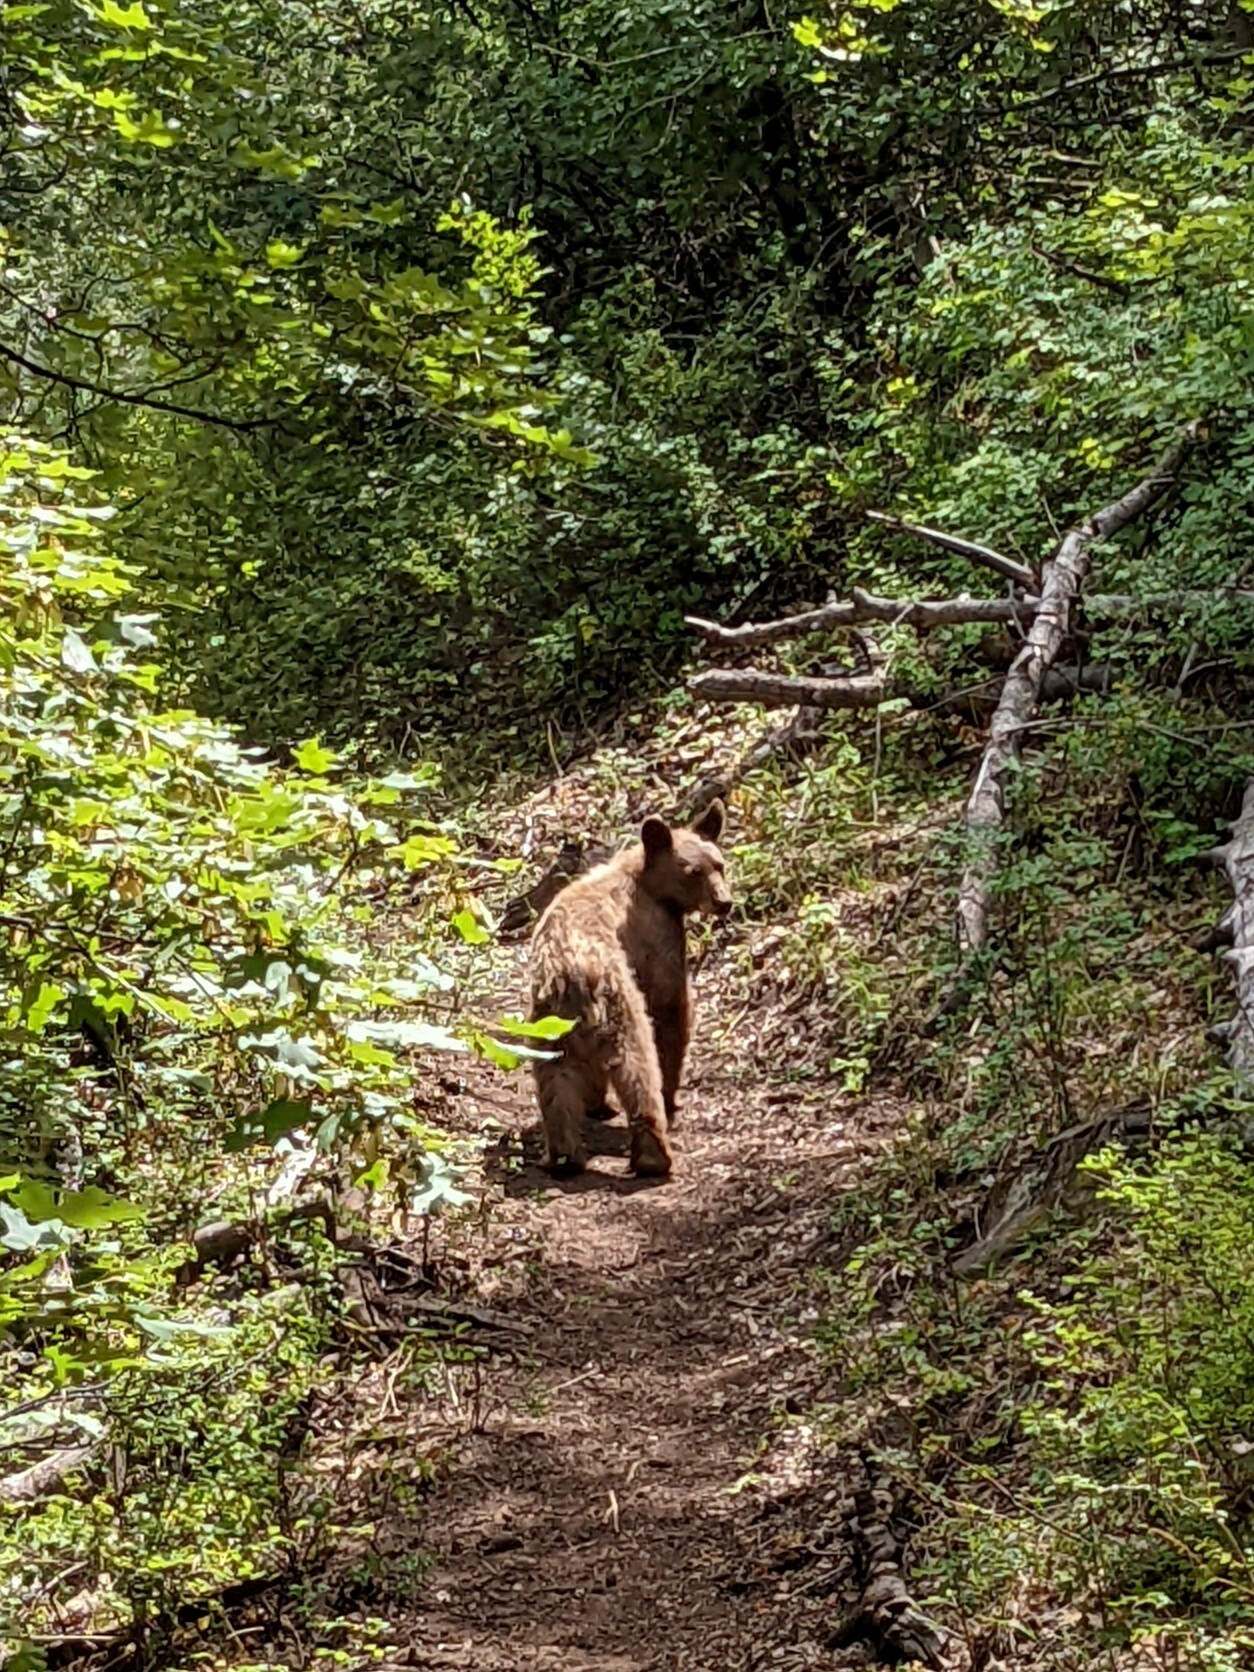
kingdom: Animalia
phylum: Chordata
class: Mammalia
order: Carnivora
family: Ursidae
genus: Ursus
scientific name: Ursus americanus
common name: American black bear
